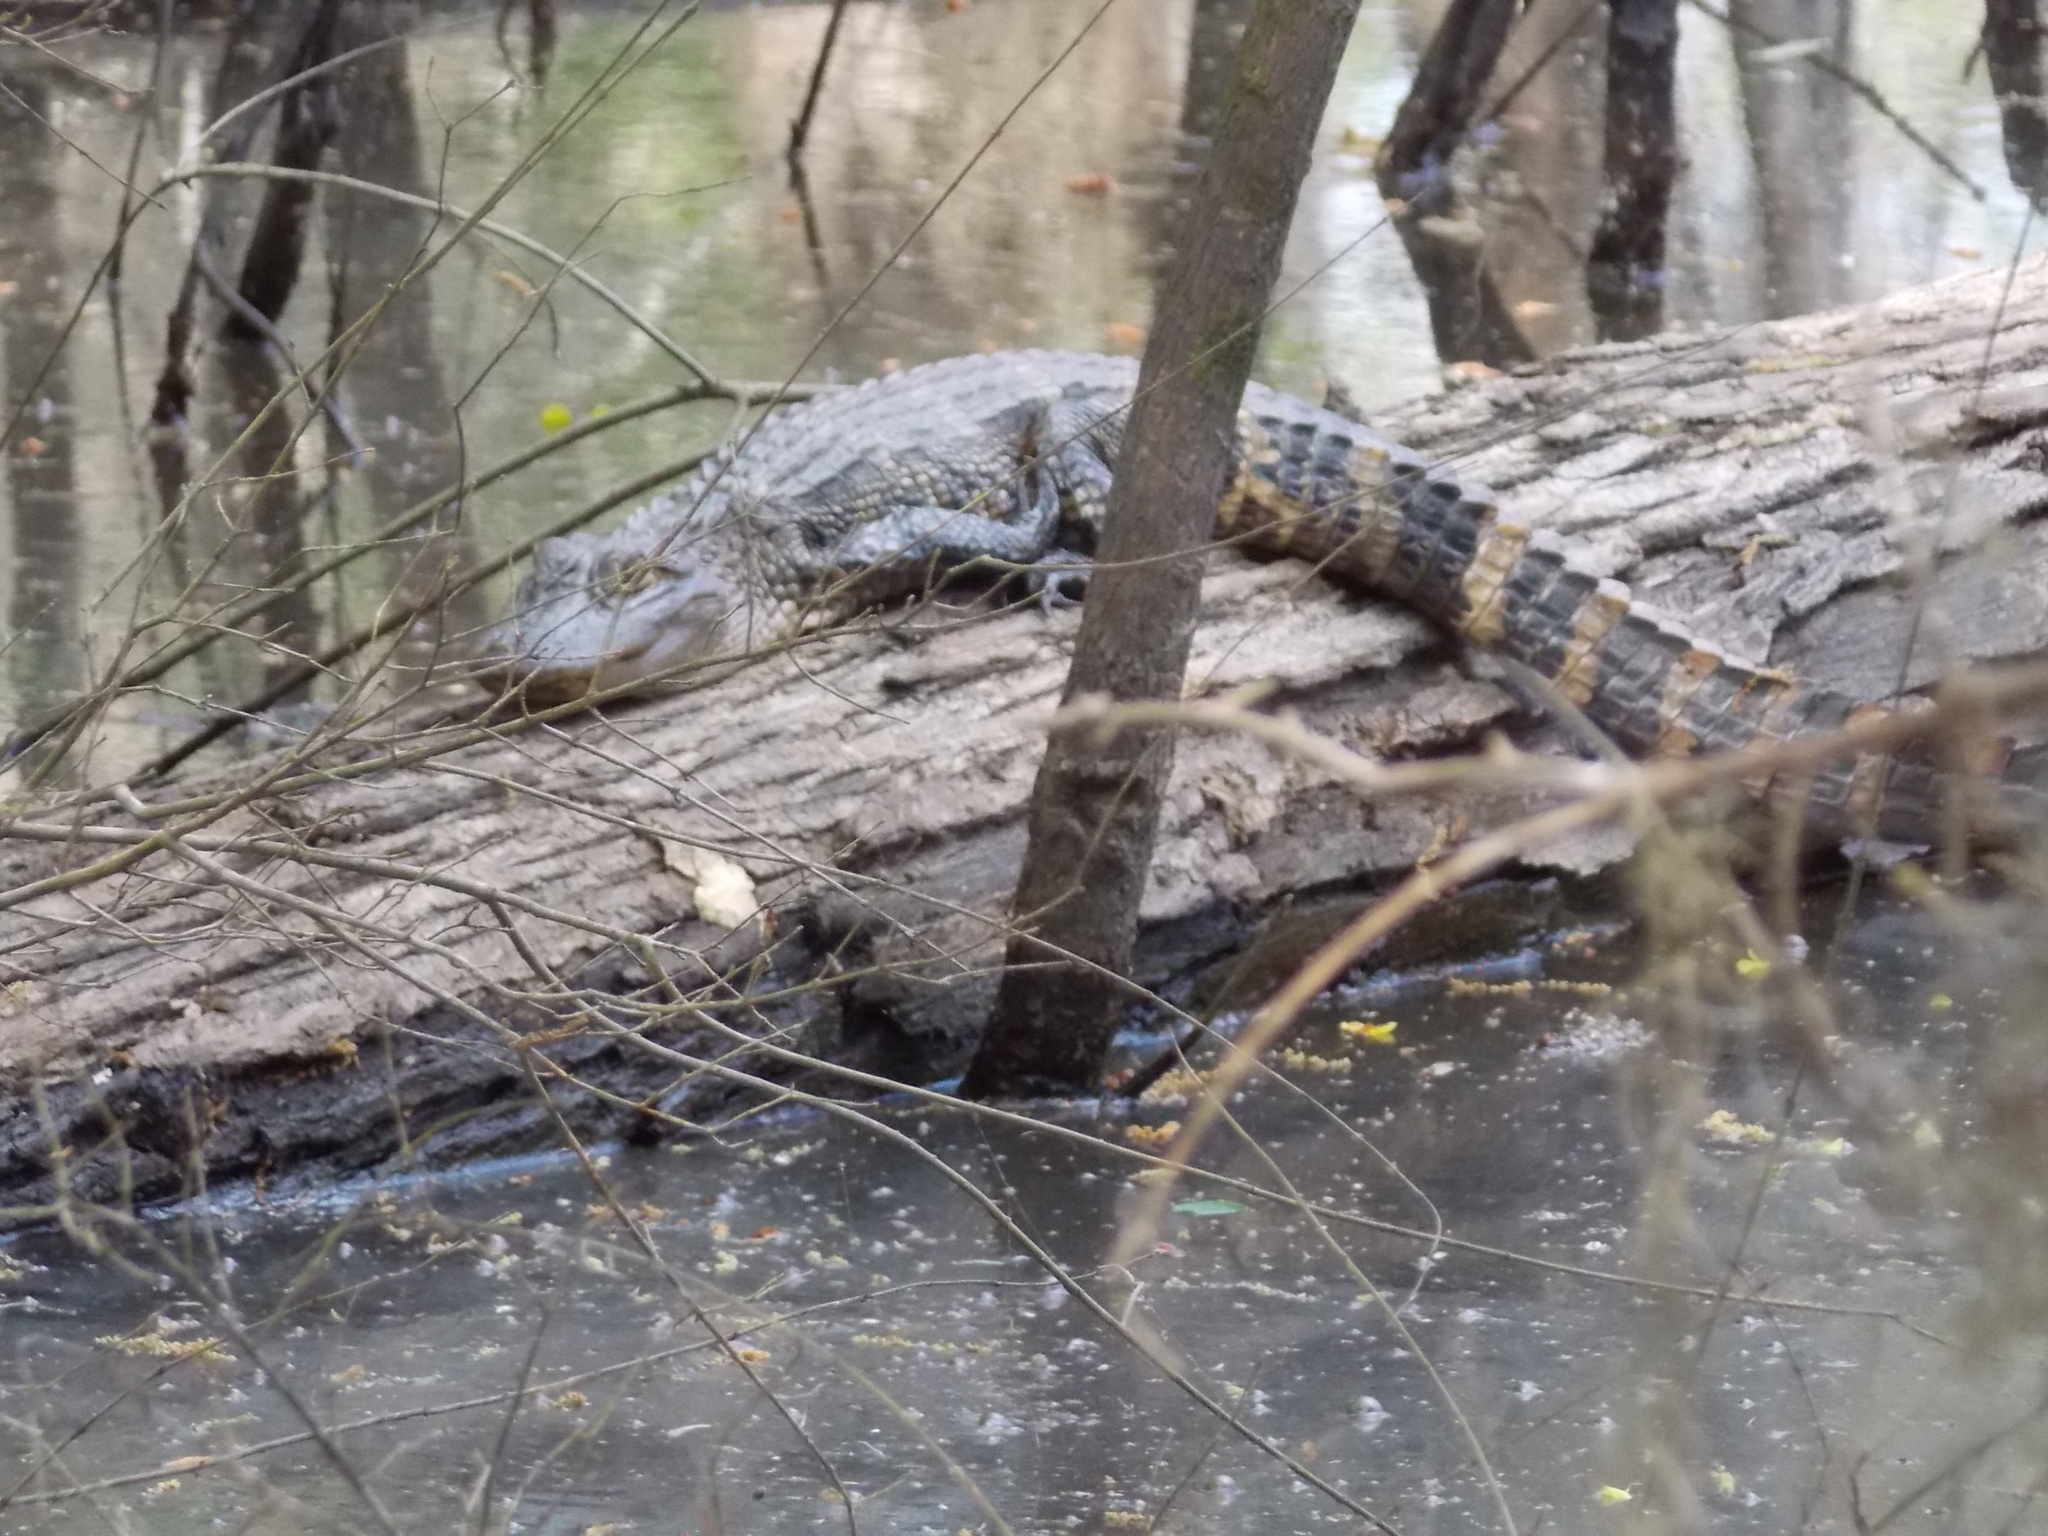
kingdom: Animalia
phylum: Chordata
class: Crocodylia
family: Alligatoridae
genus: Alligator
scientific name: Alligator mississippiensis
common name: American alligator
